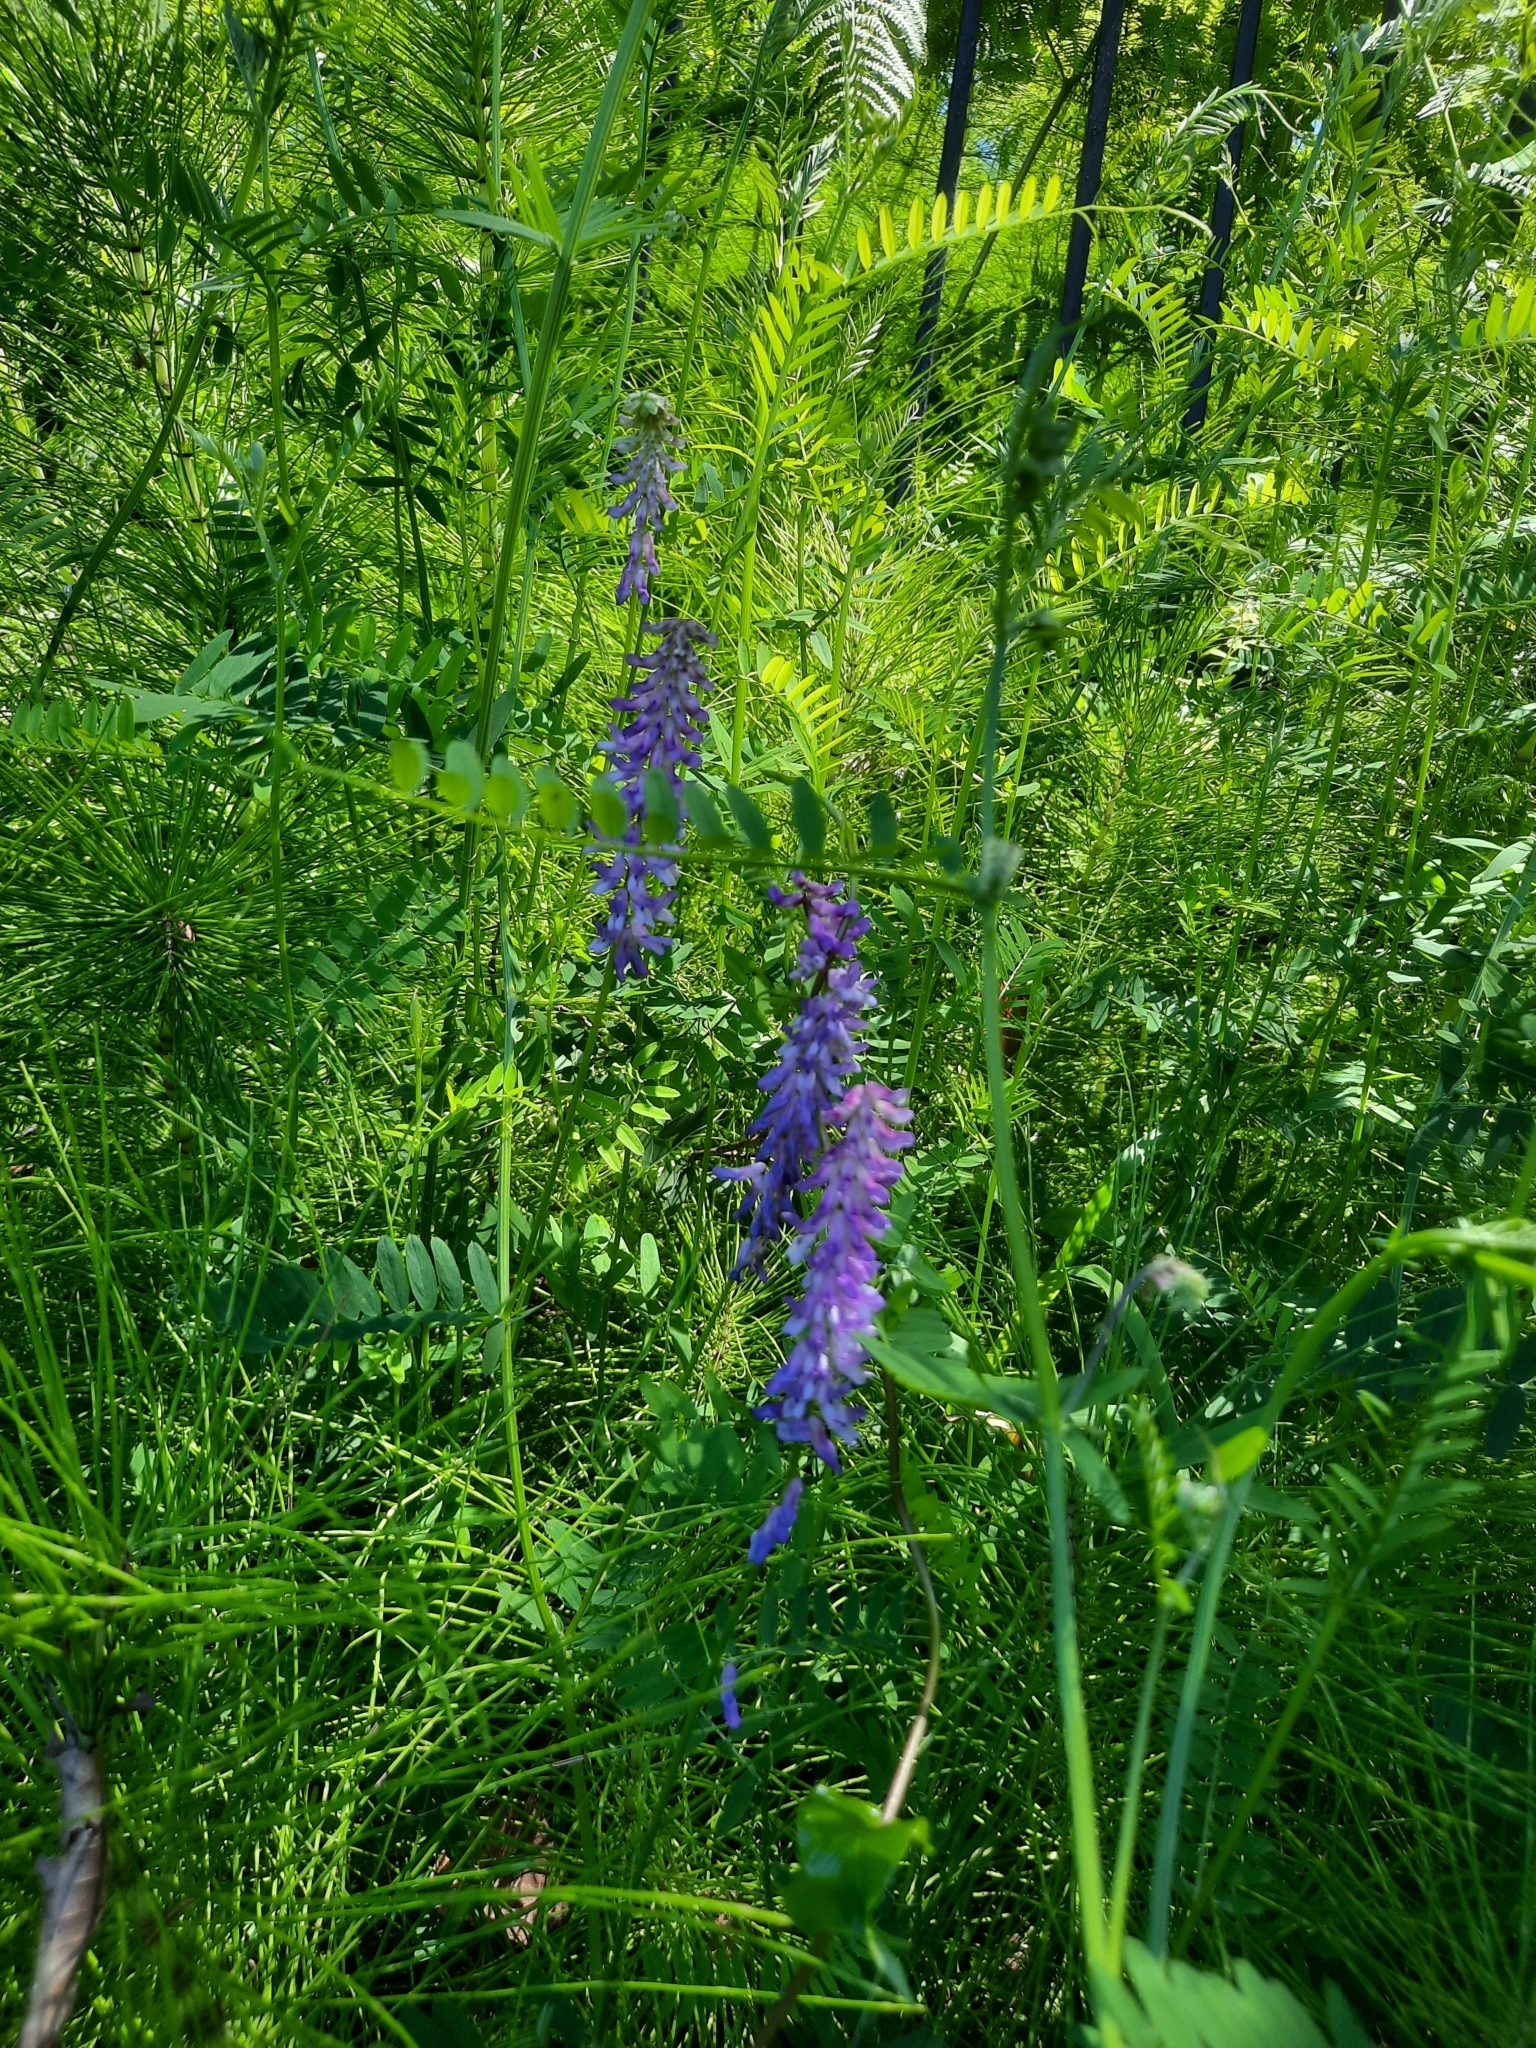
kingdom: Plantae
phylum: Tracheophyta
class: Magnoliopsida
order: Fabales
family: Fabaceae
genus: Vicia
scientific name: Vicia cracca
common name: Bird vetch
